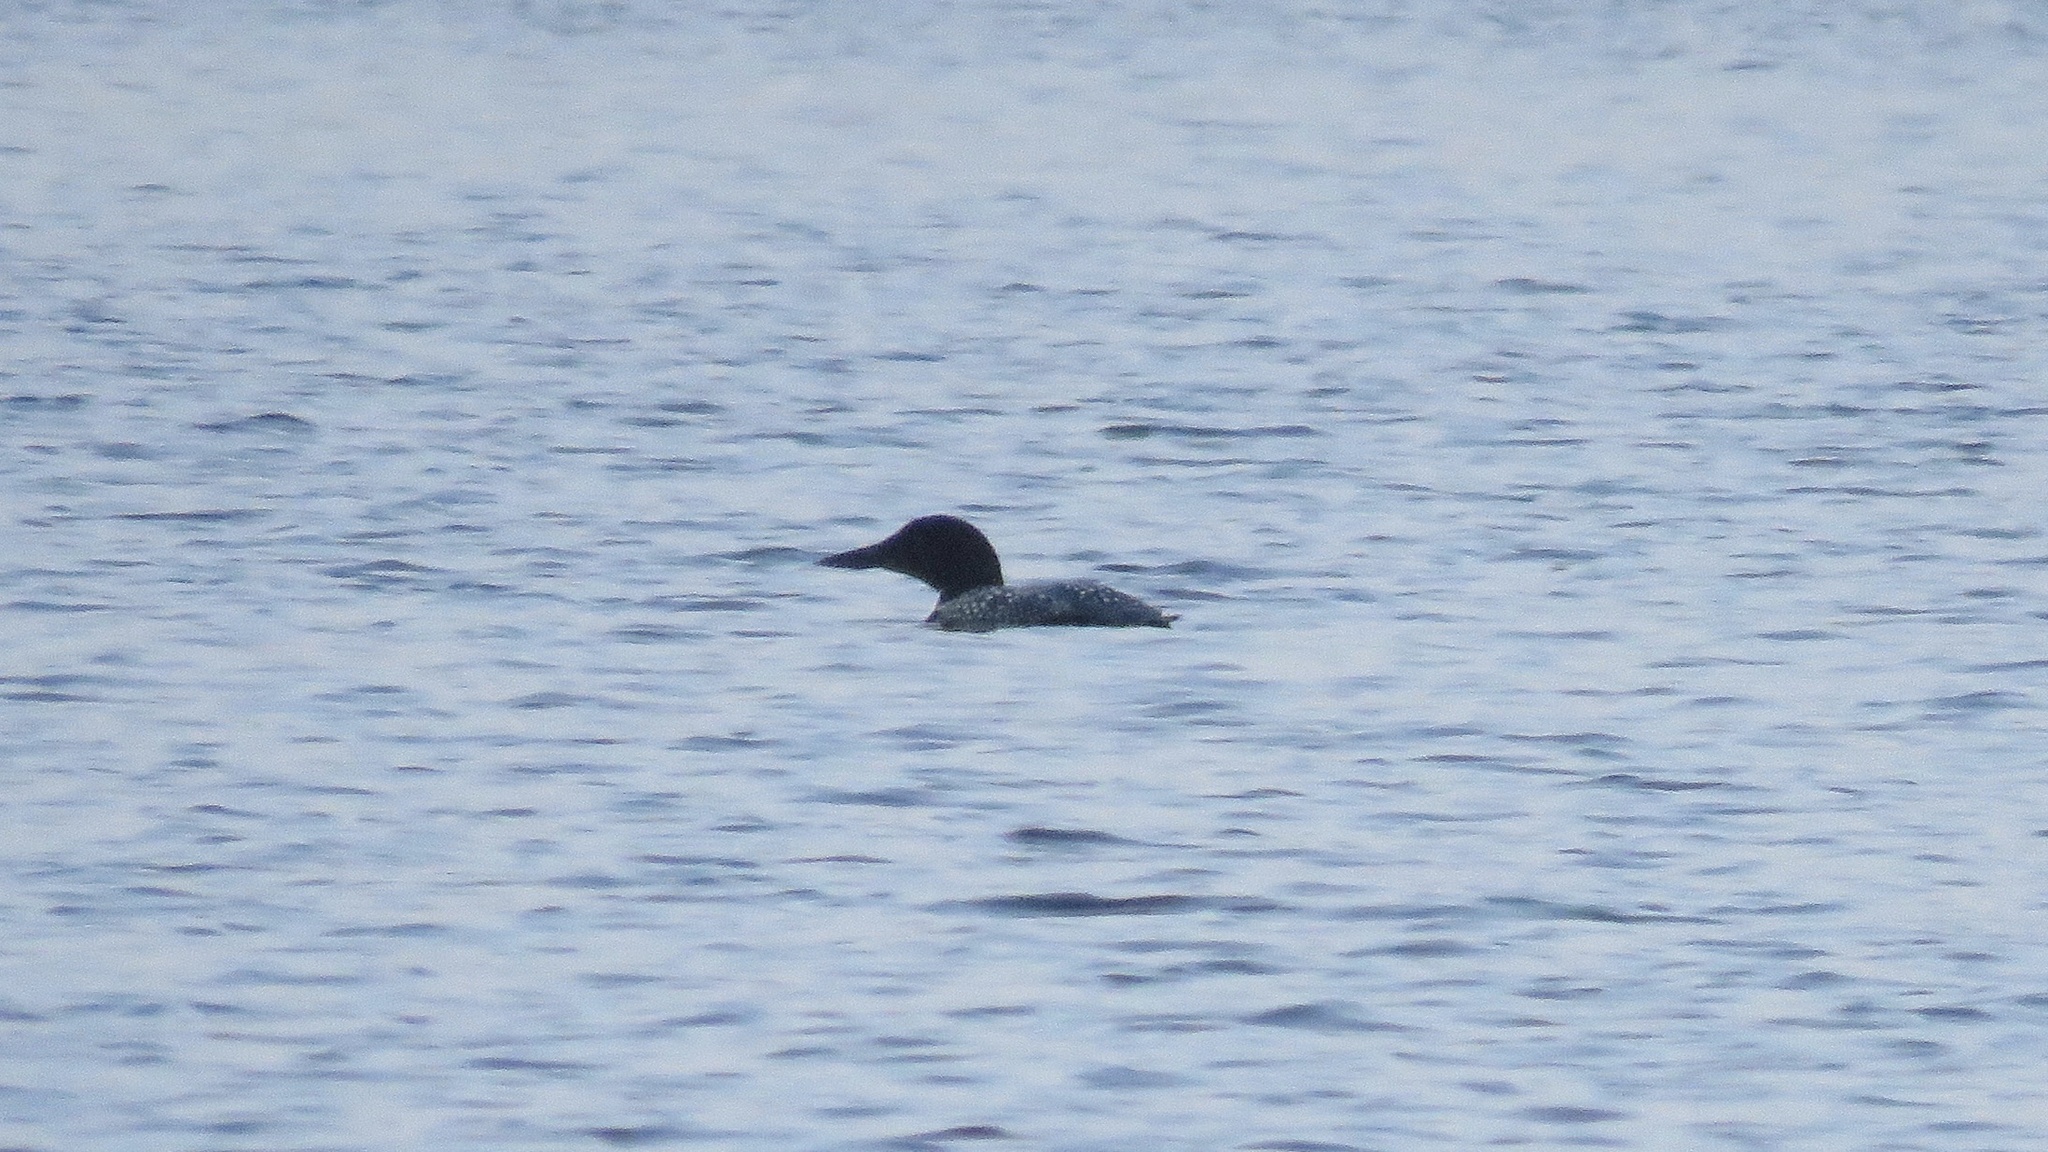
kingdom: Animalia
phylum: Chordata
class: Aves
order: Gaviiformes
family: Gaviidae
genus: Gavia
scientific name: Gavia immer
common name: Common loon
